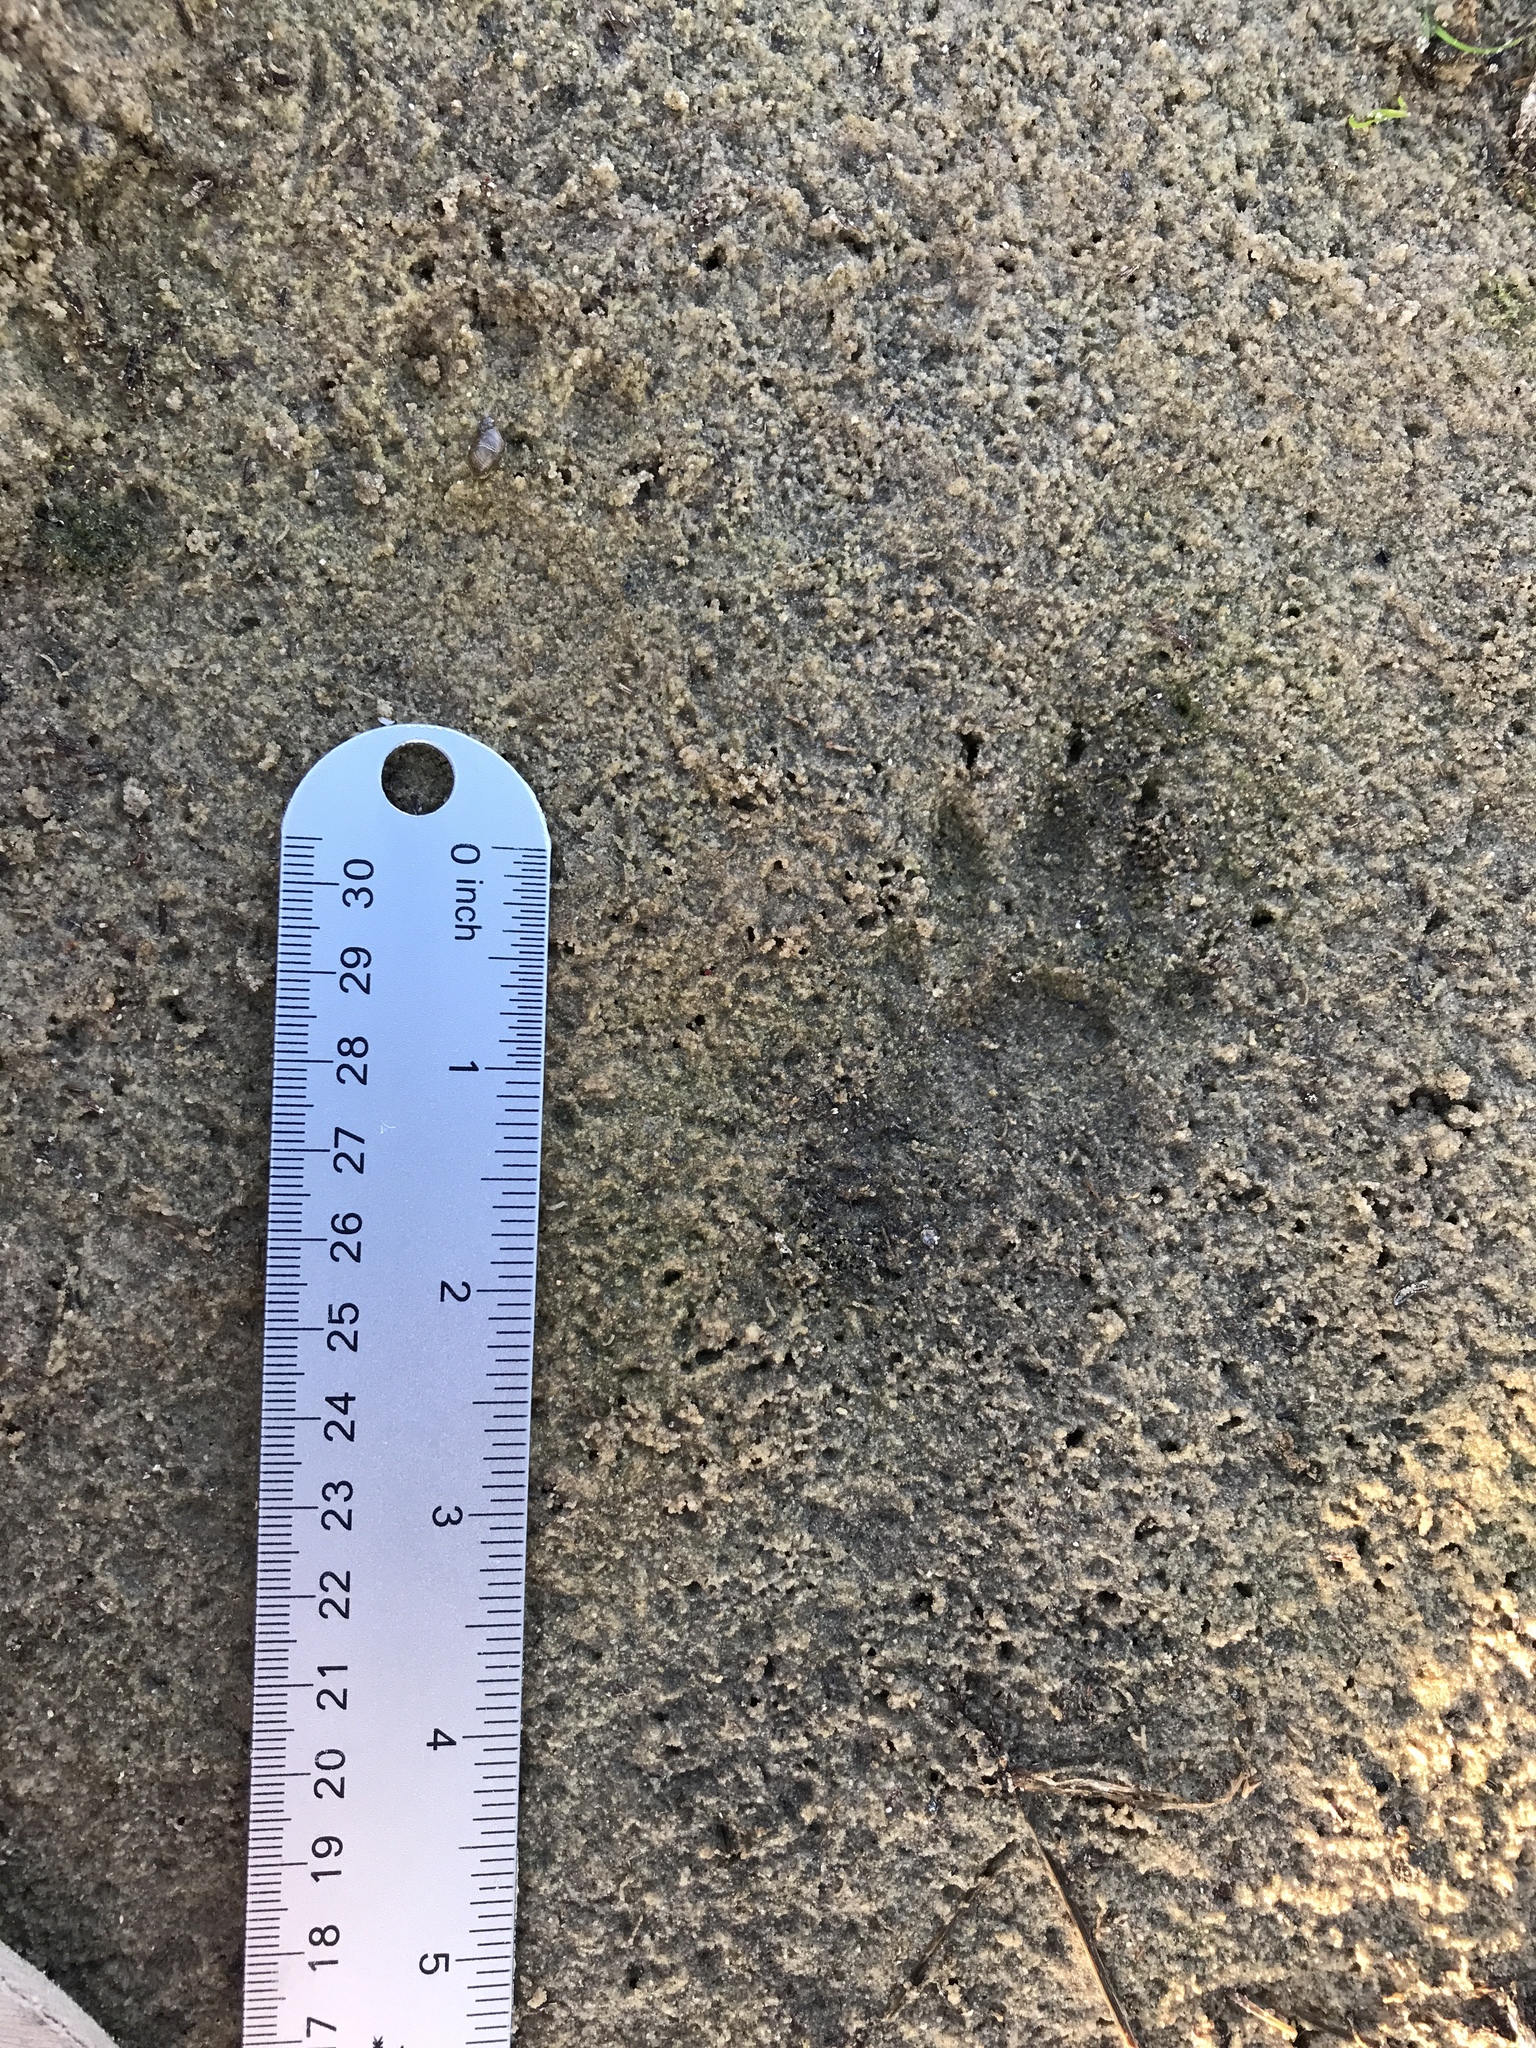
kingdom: Animalia
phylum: Chordata
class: Mammalia
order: Carnivora
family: Procyonidae
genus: Procyon
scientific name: Procyon lotor
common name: Raccoon
